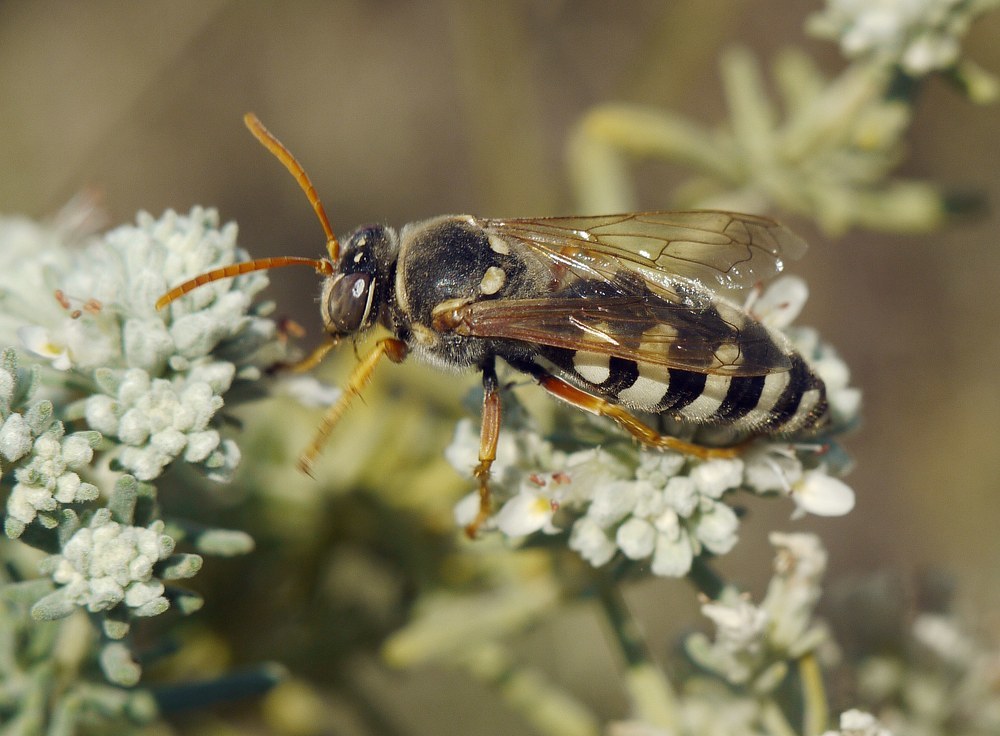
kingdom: Animalia
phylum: Arthropoda
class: Insecta
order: Hymenoptera
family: Crabronidae
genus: Stizus
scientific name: Stizus bipunctatus
